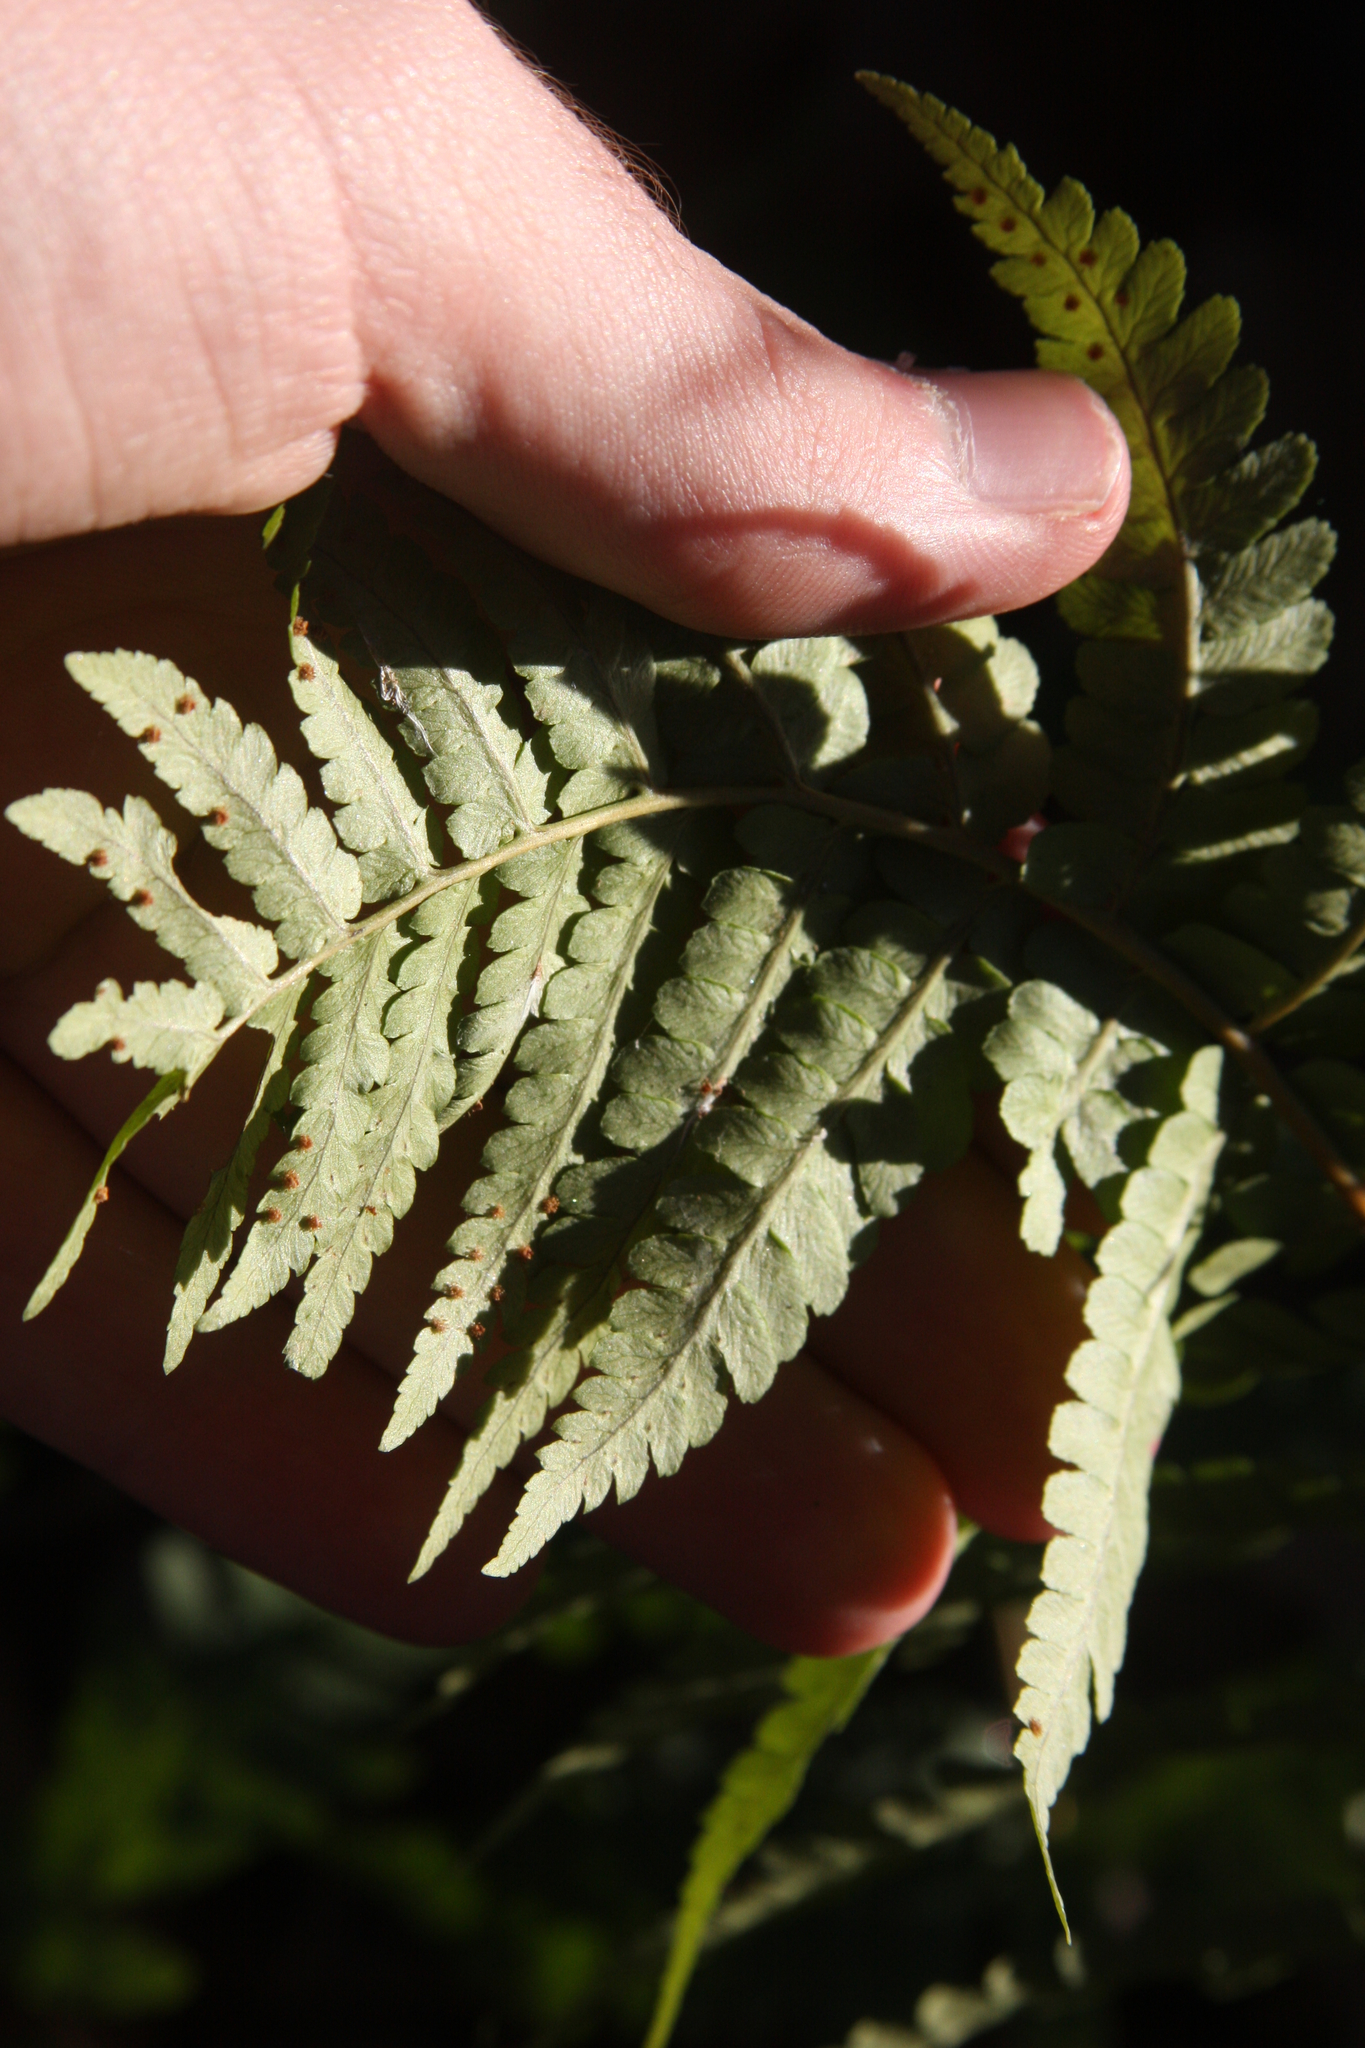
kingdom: Plantae
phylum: Tracheophyta
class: Polypodiopsida
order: Polypodiales
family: Dryopteridaceae
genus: Dryopteris
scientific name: Dryopteris marginalis
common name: Marginal wood fern
